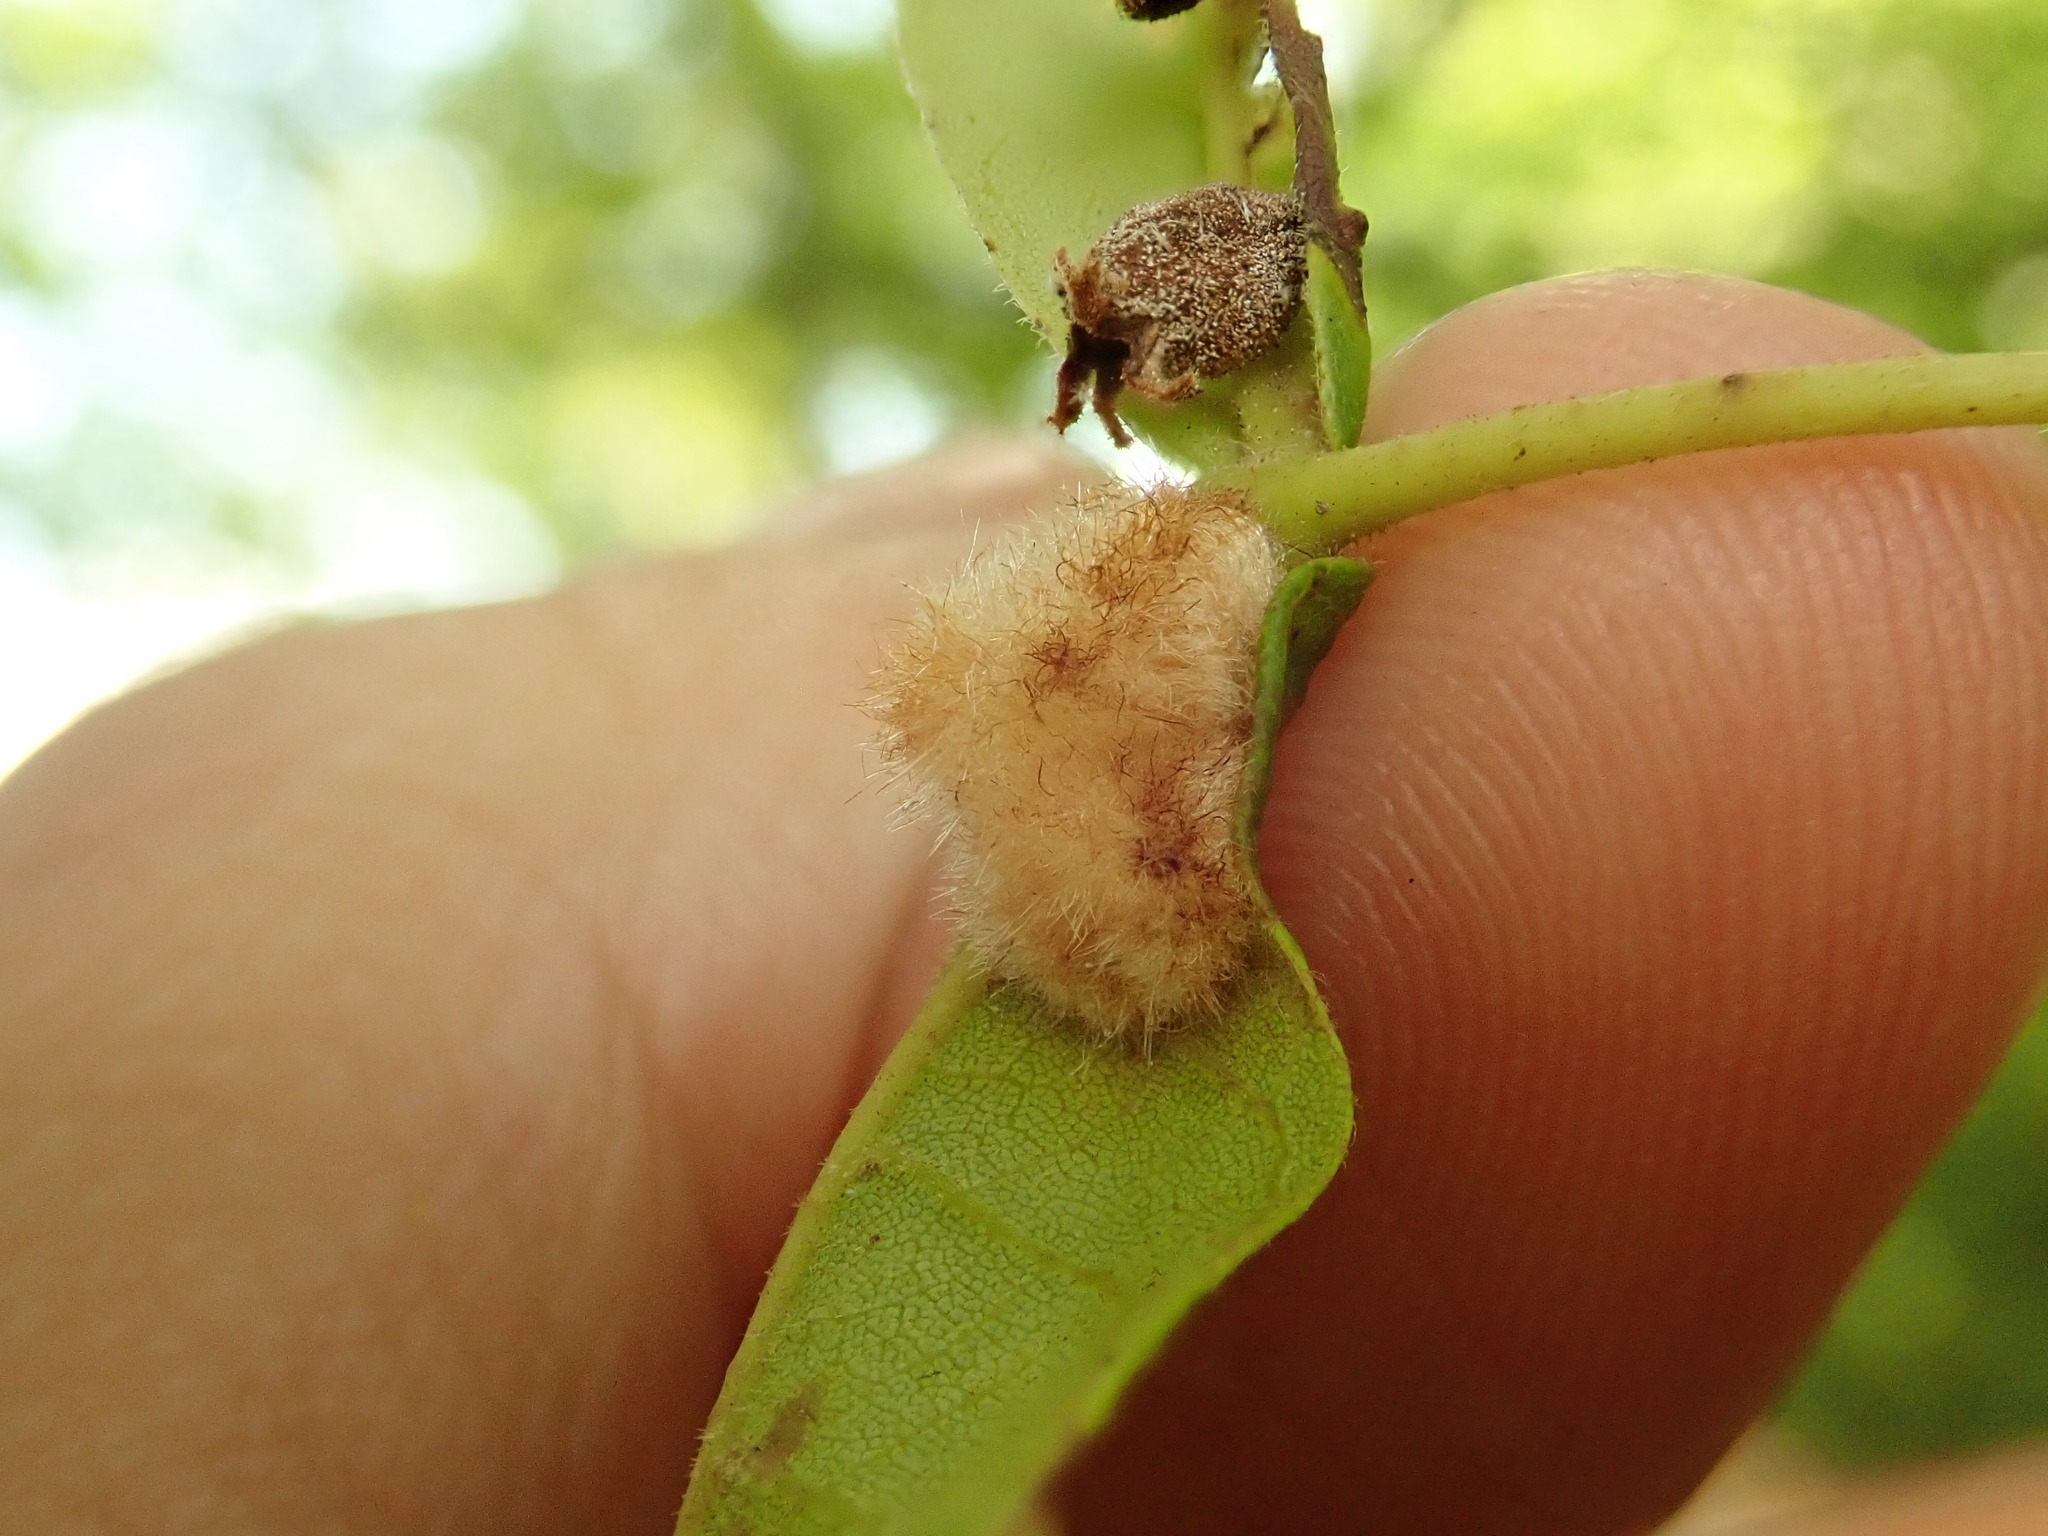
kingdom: Animalia
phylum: Arthropoda
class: Insecta
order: Diptera
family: Cecidomyiidae
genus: Caryomyia
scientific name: Caryomyia aggregata
